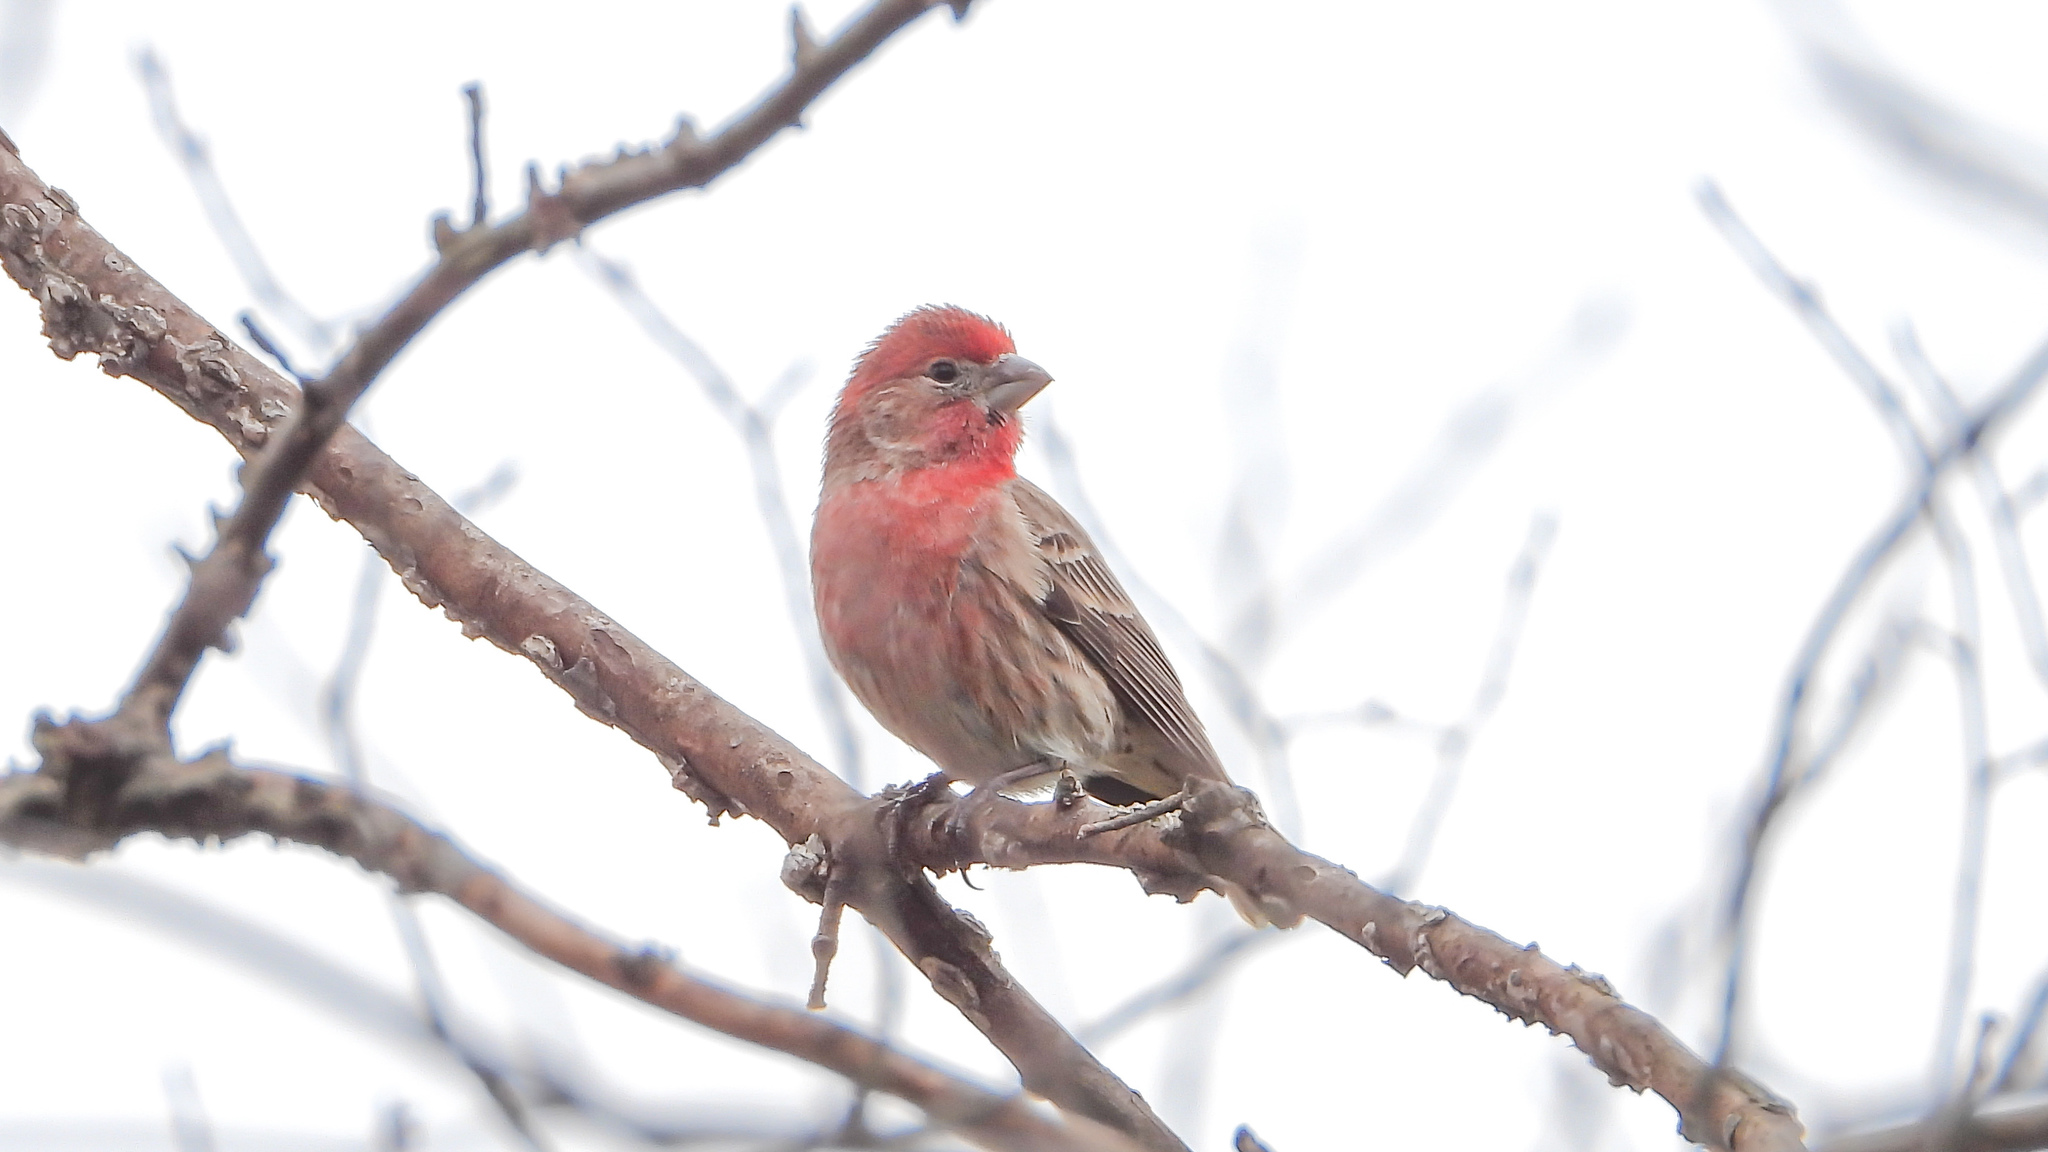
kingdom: Animalia
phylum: Chordata
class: Aves
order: Passeriformes
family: Fringillidae
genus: Haemorhous
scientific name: Haemorhous mexicanus
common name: House finch
